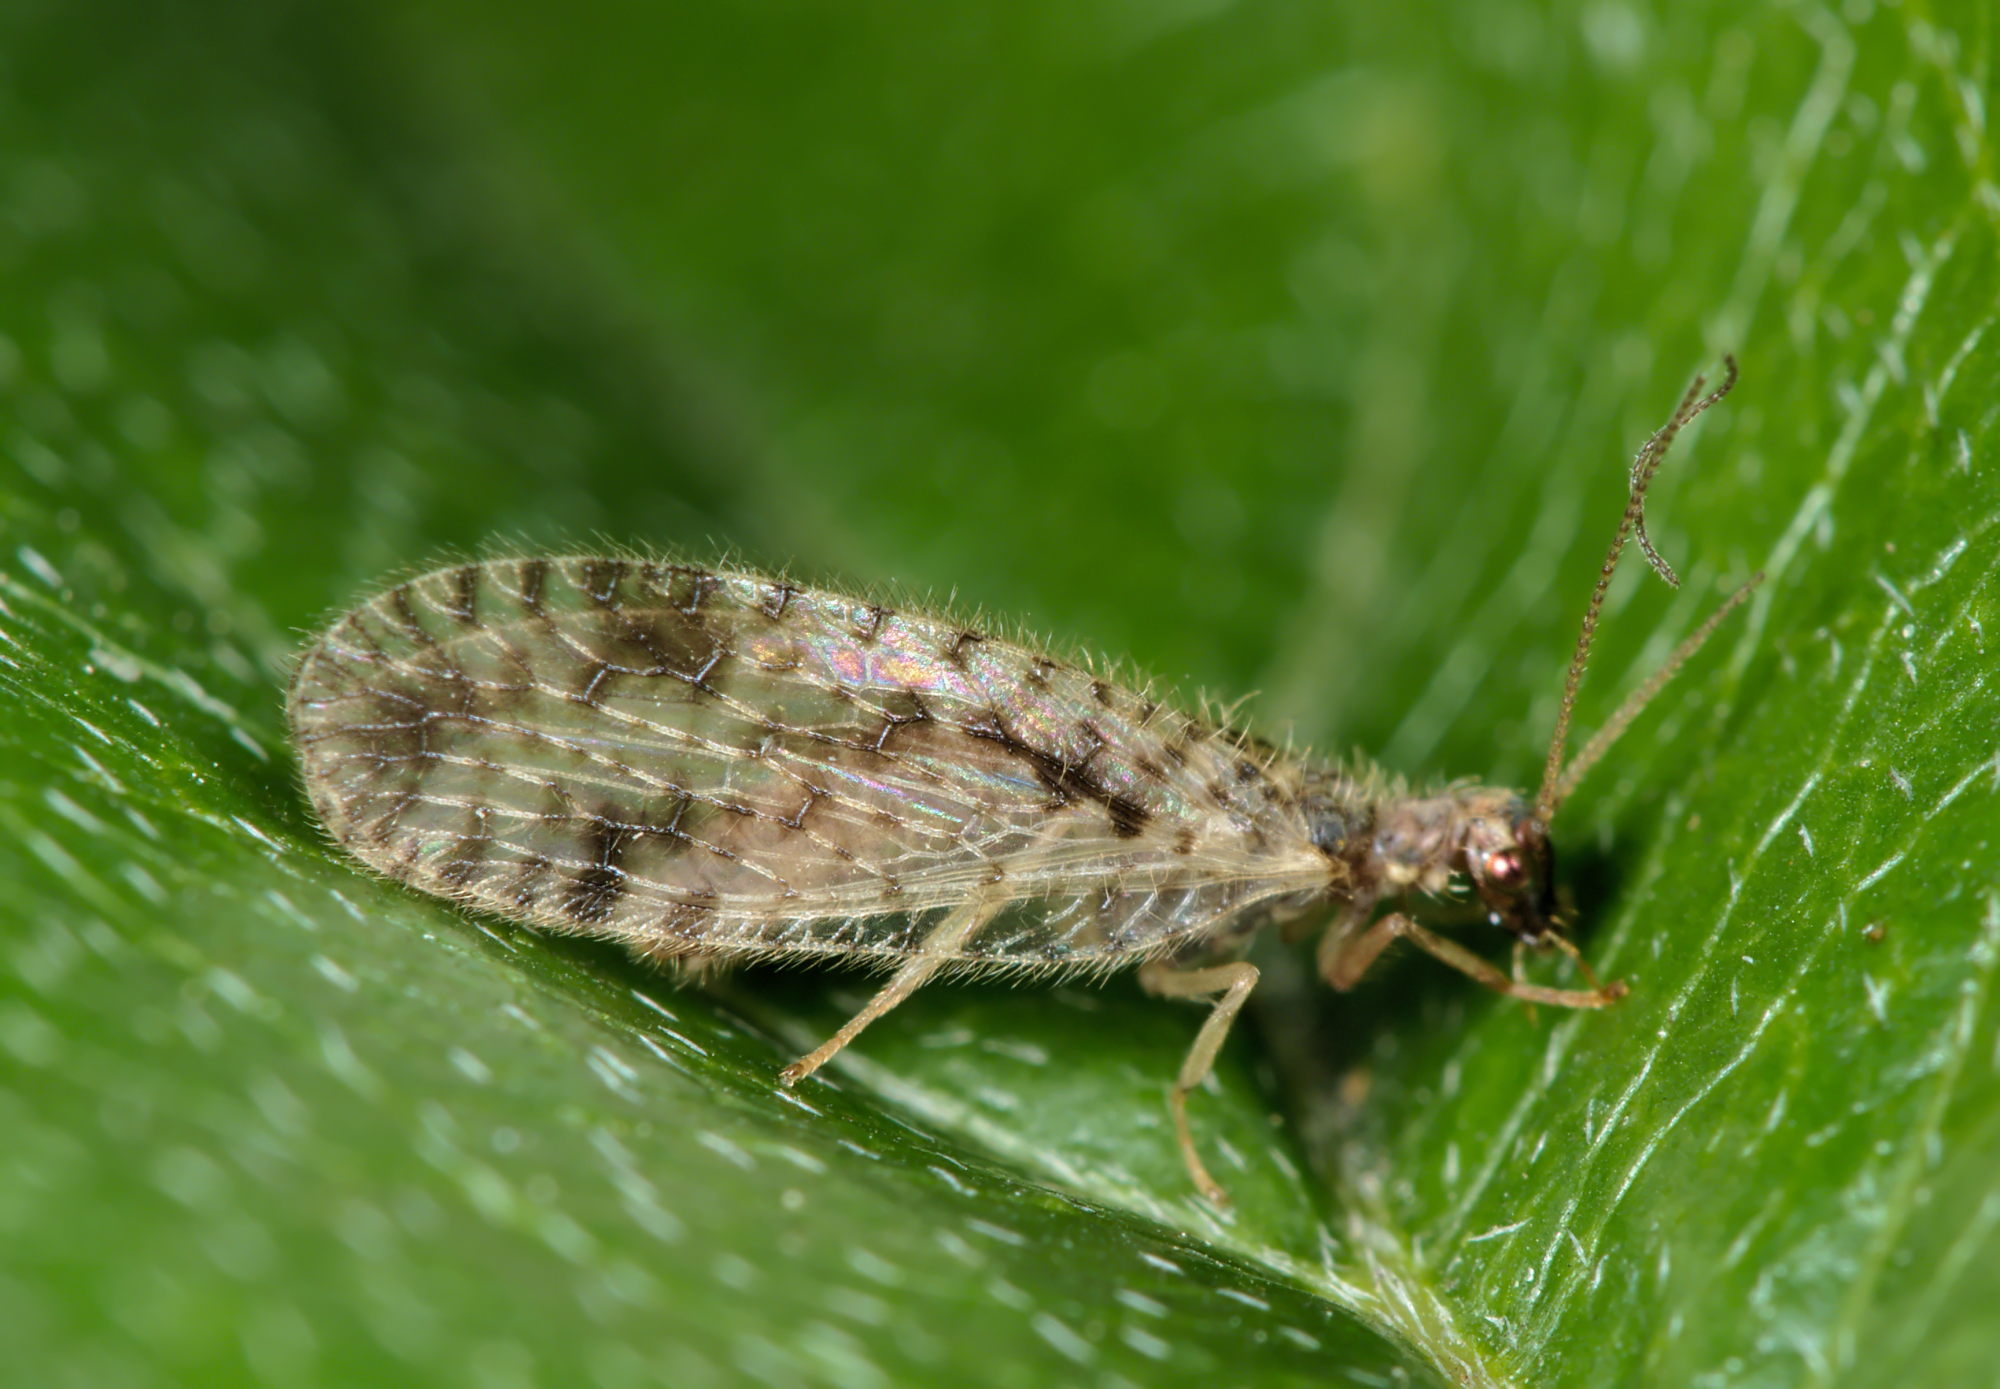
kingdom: Animalia
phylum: Arthropoda
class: Insecta
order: Neuroptera
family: Hemerobiidae
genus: Micromus
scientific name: Micromus variegatus
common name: Brown lacewing
